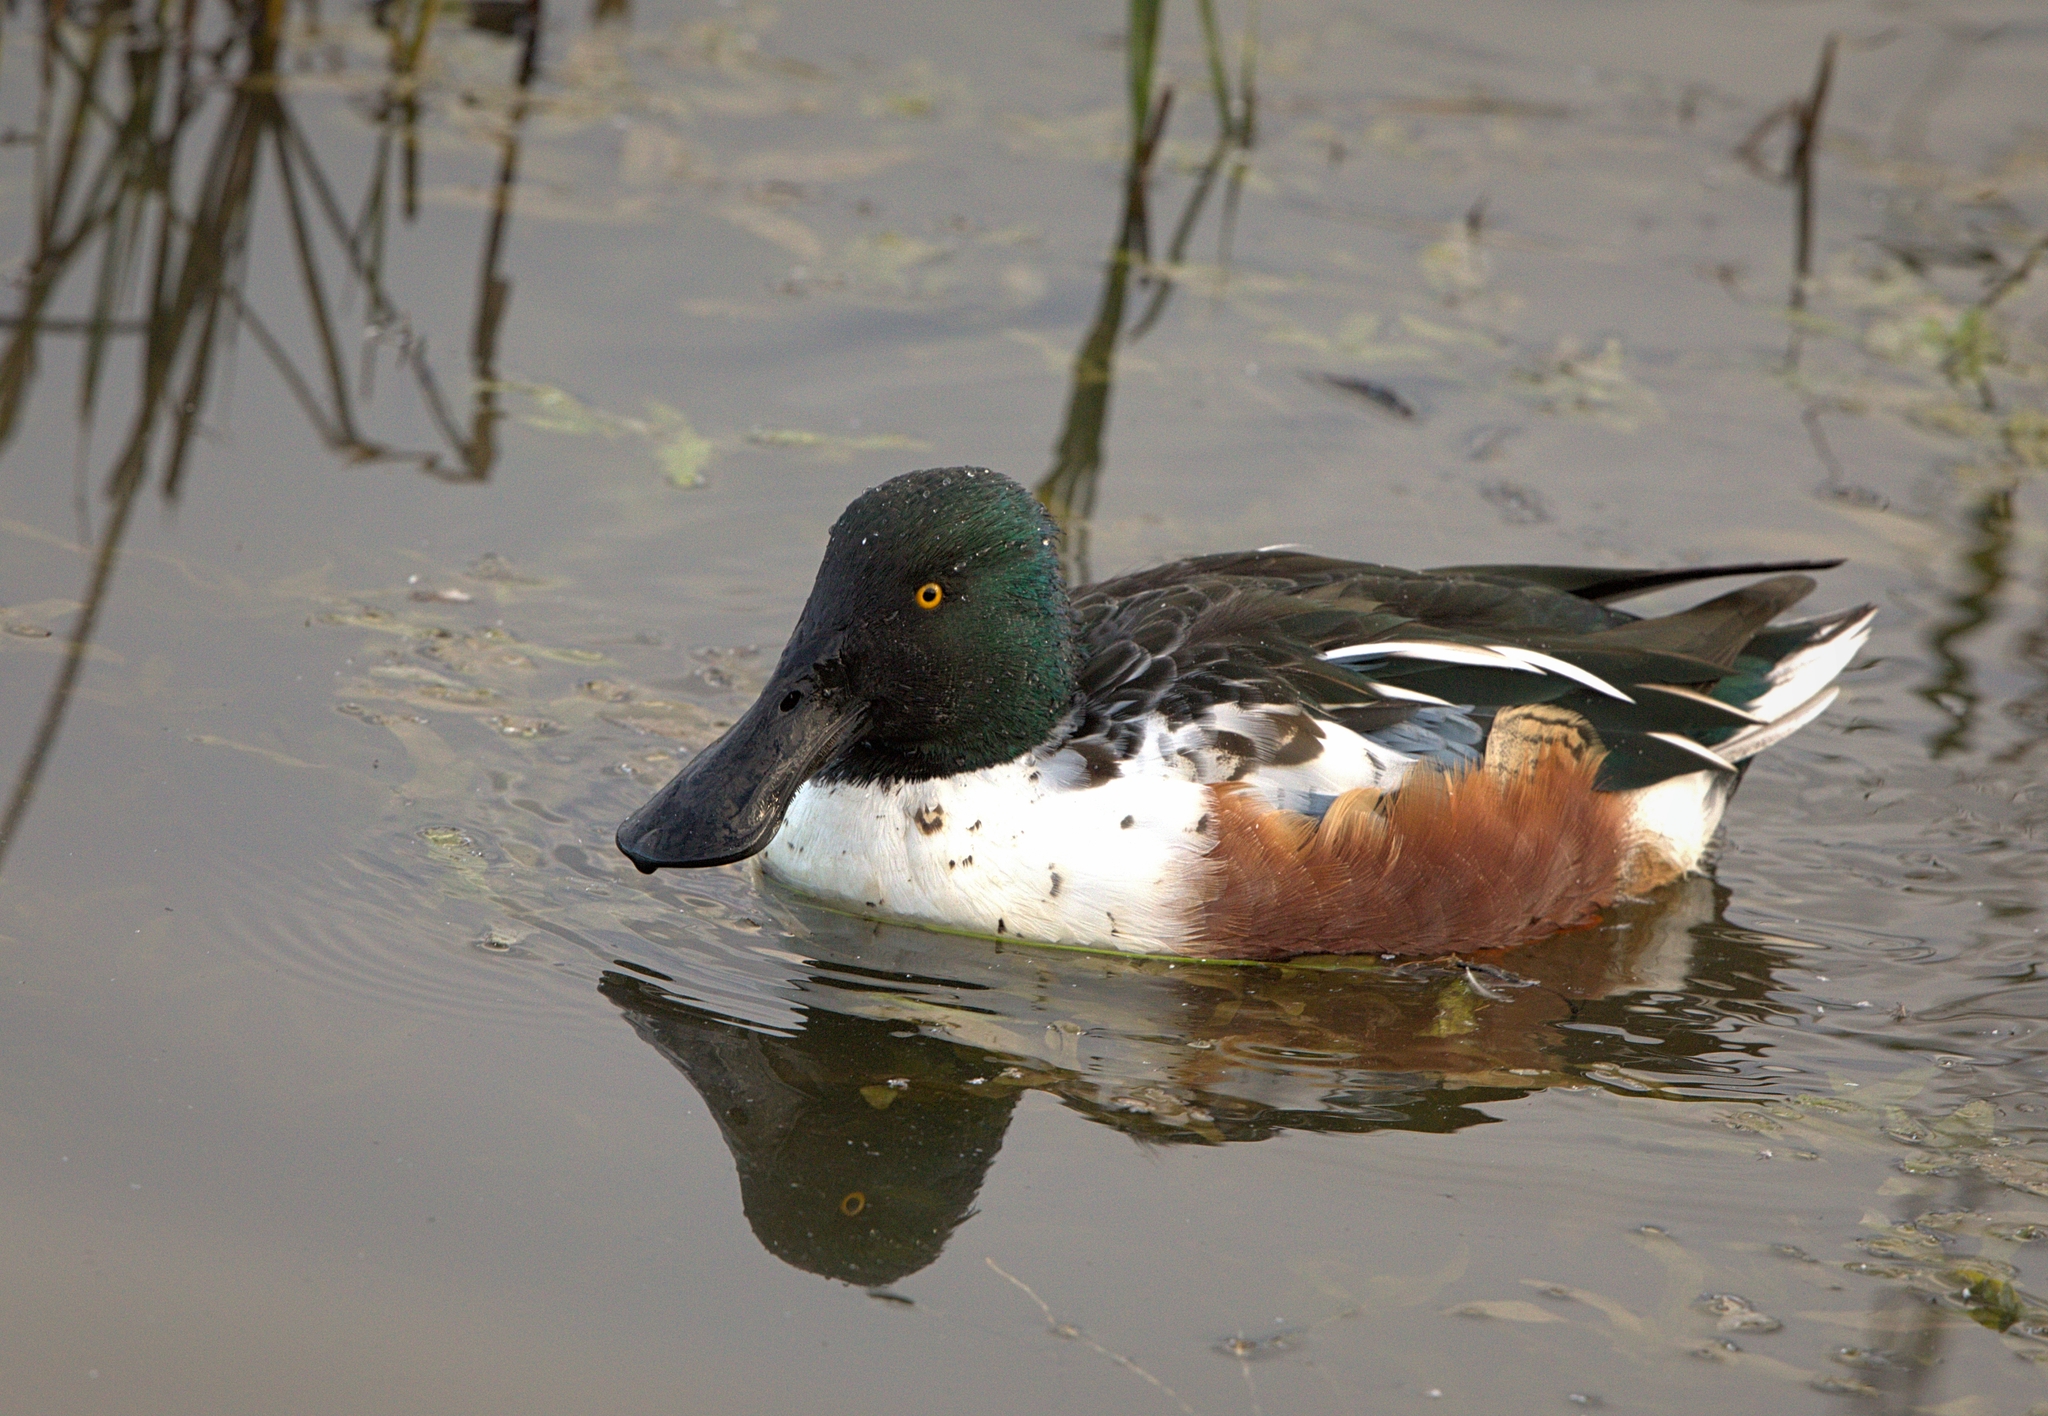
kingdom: Animalia
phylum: Chordata
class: Aves
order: Anseriformes
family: Anatidae
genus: Spatula
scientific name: Spatula clypeata
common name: Northern shoveler
